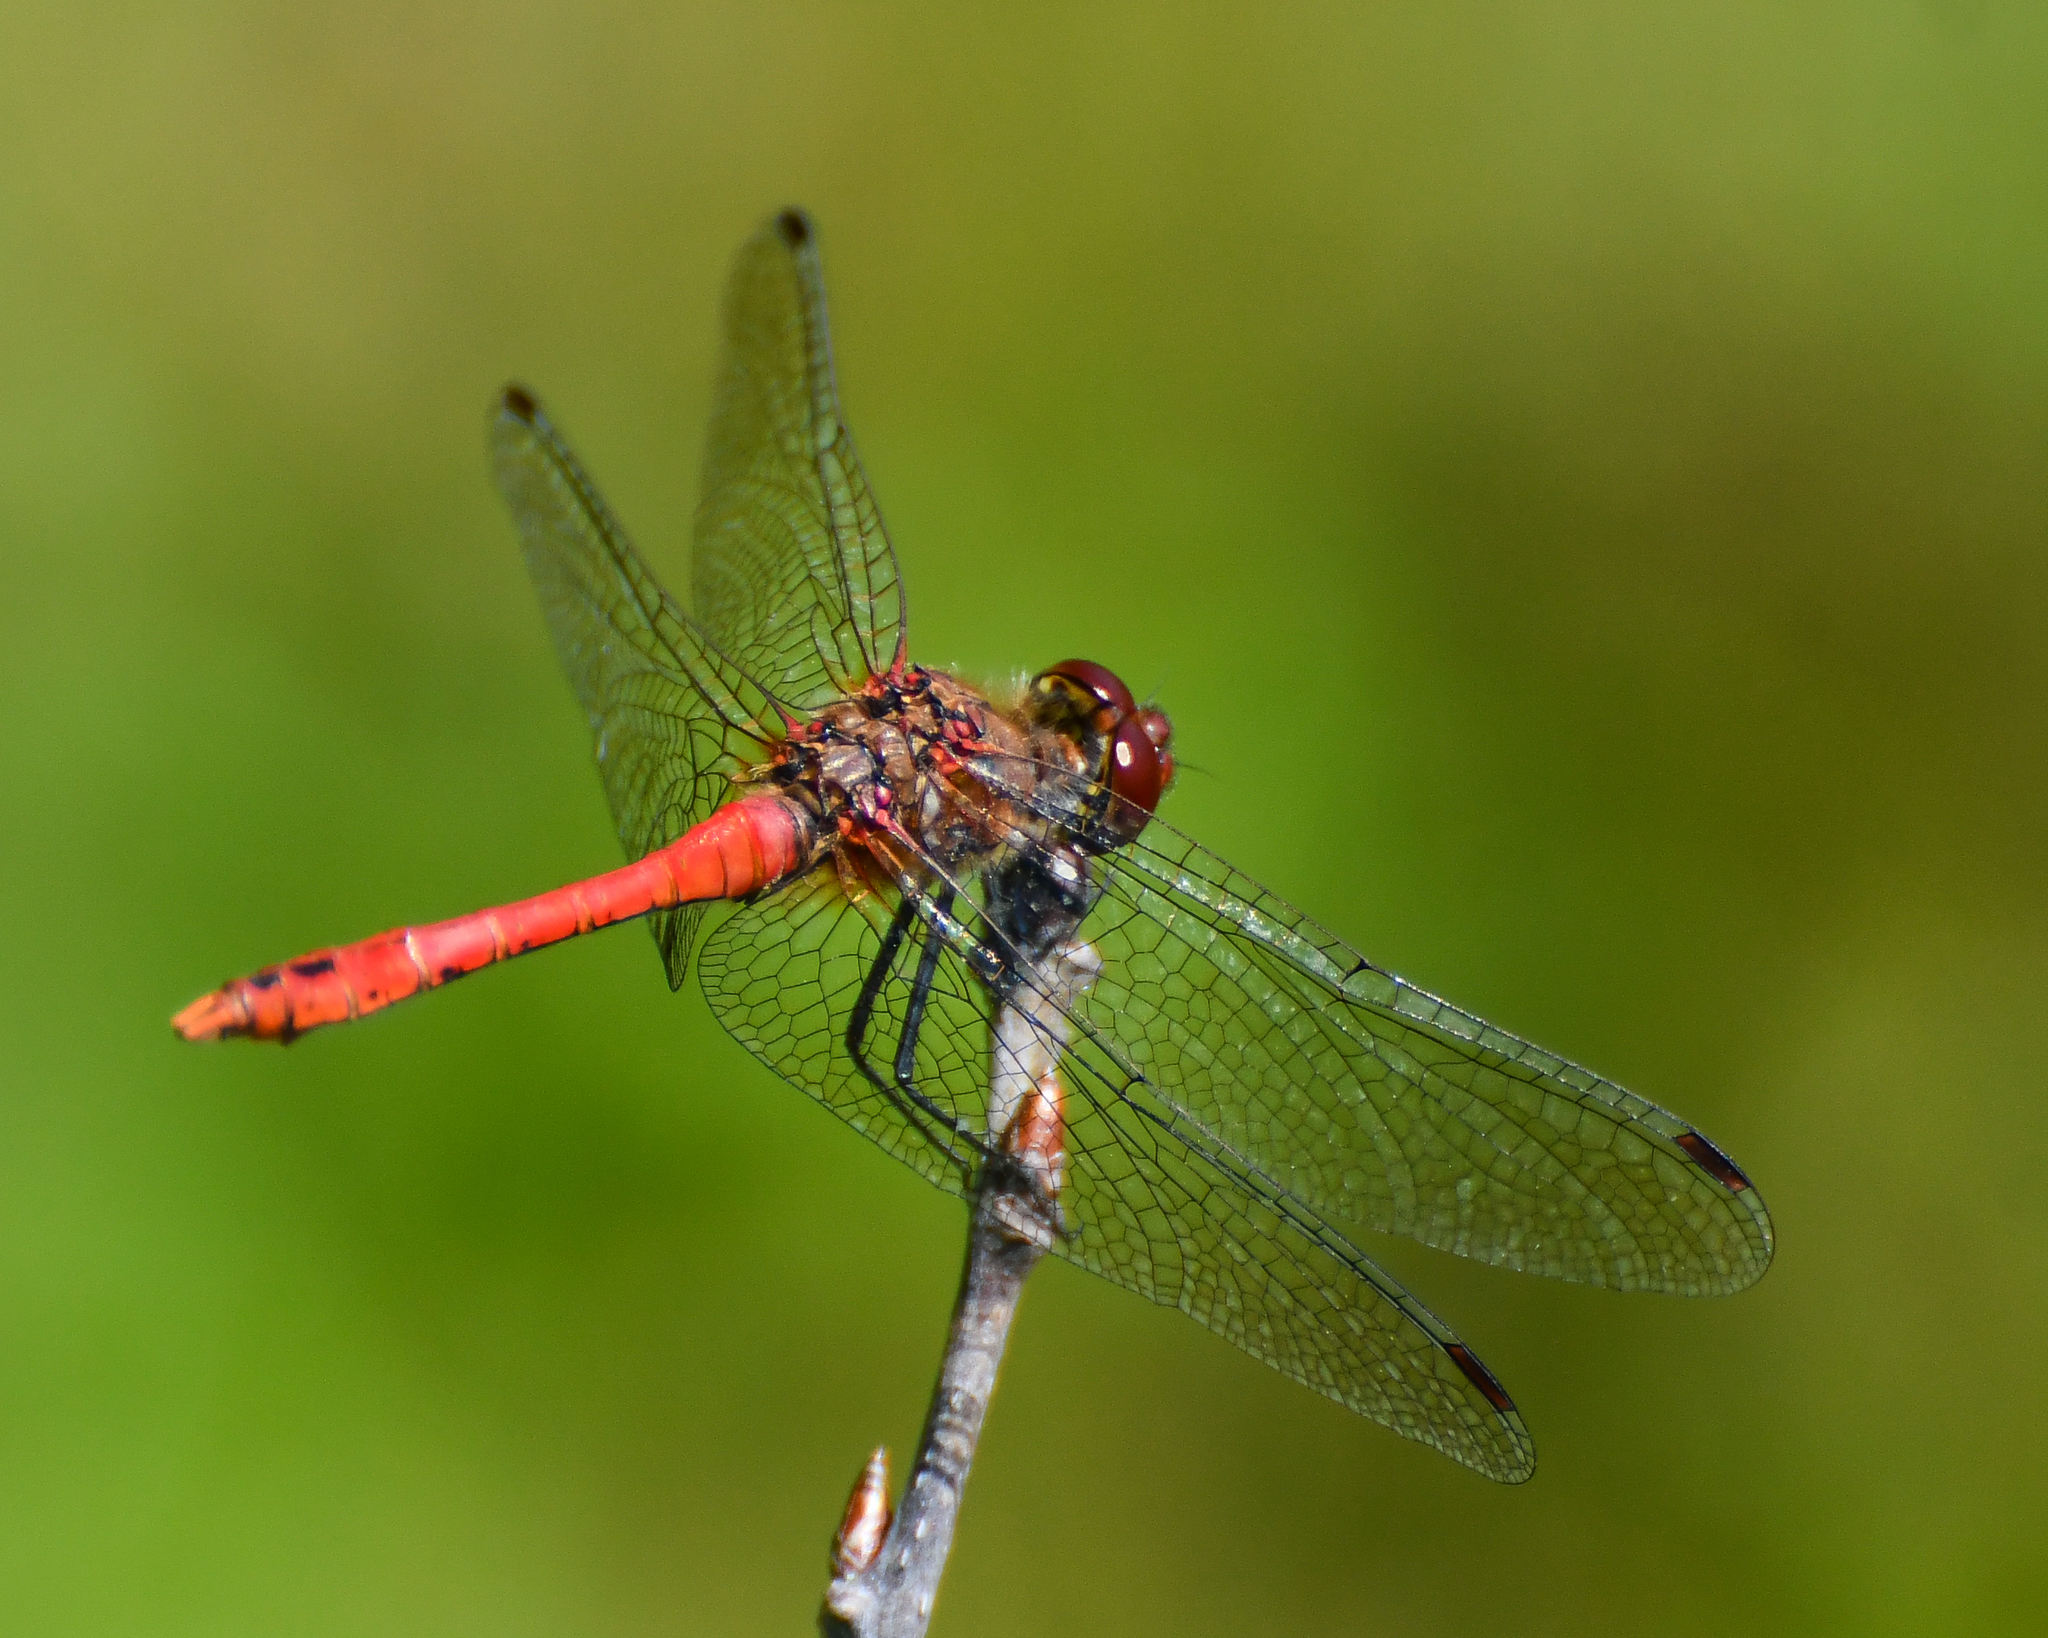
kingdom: Animalia
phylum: Arthropoda
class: Insecta
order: Odonata
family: Libellulidae
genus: Sympetrum
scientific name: Sympetrum sanguineum
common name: Ruddy darter
